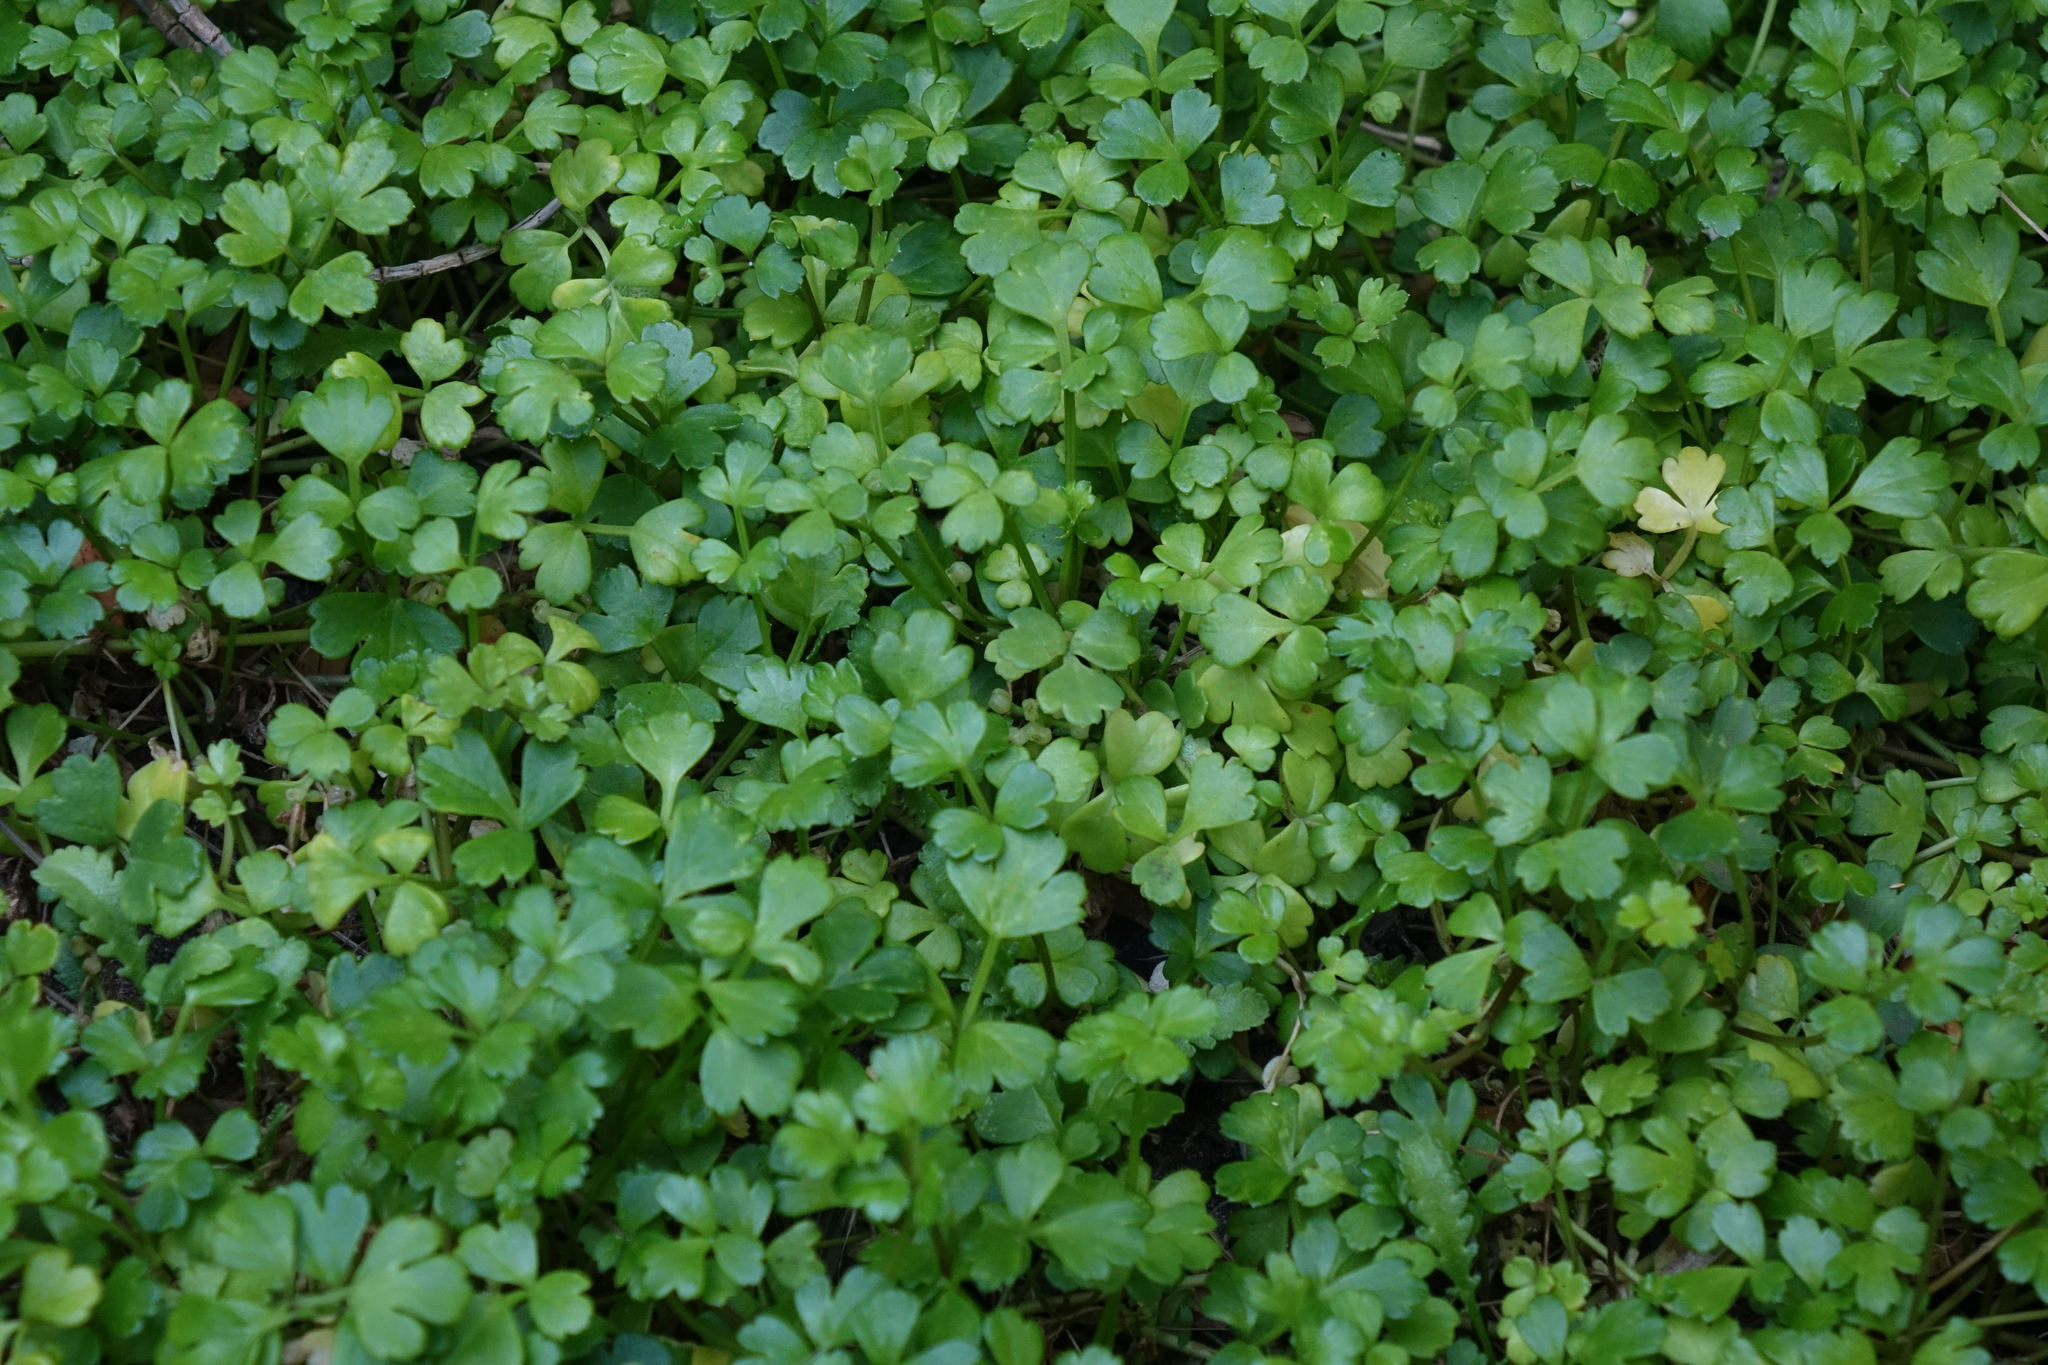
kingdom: Plantae
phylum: Tracheophyta
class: Magnoliopsida
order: Apiales
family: Apiaceae
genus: Apium
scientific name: Apium prostratum
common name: Prostrate marshwort
